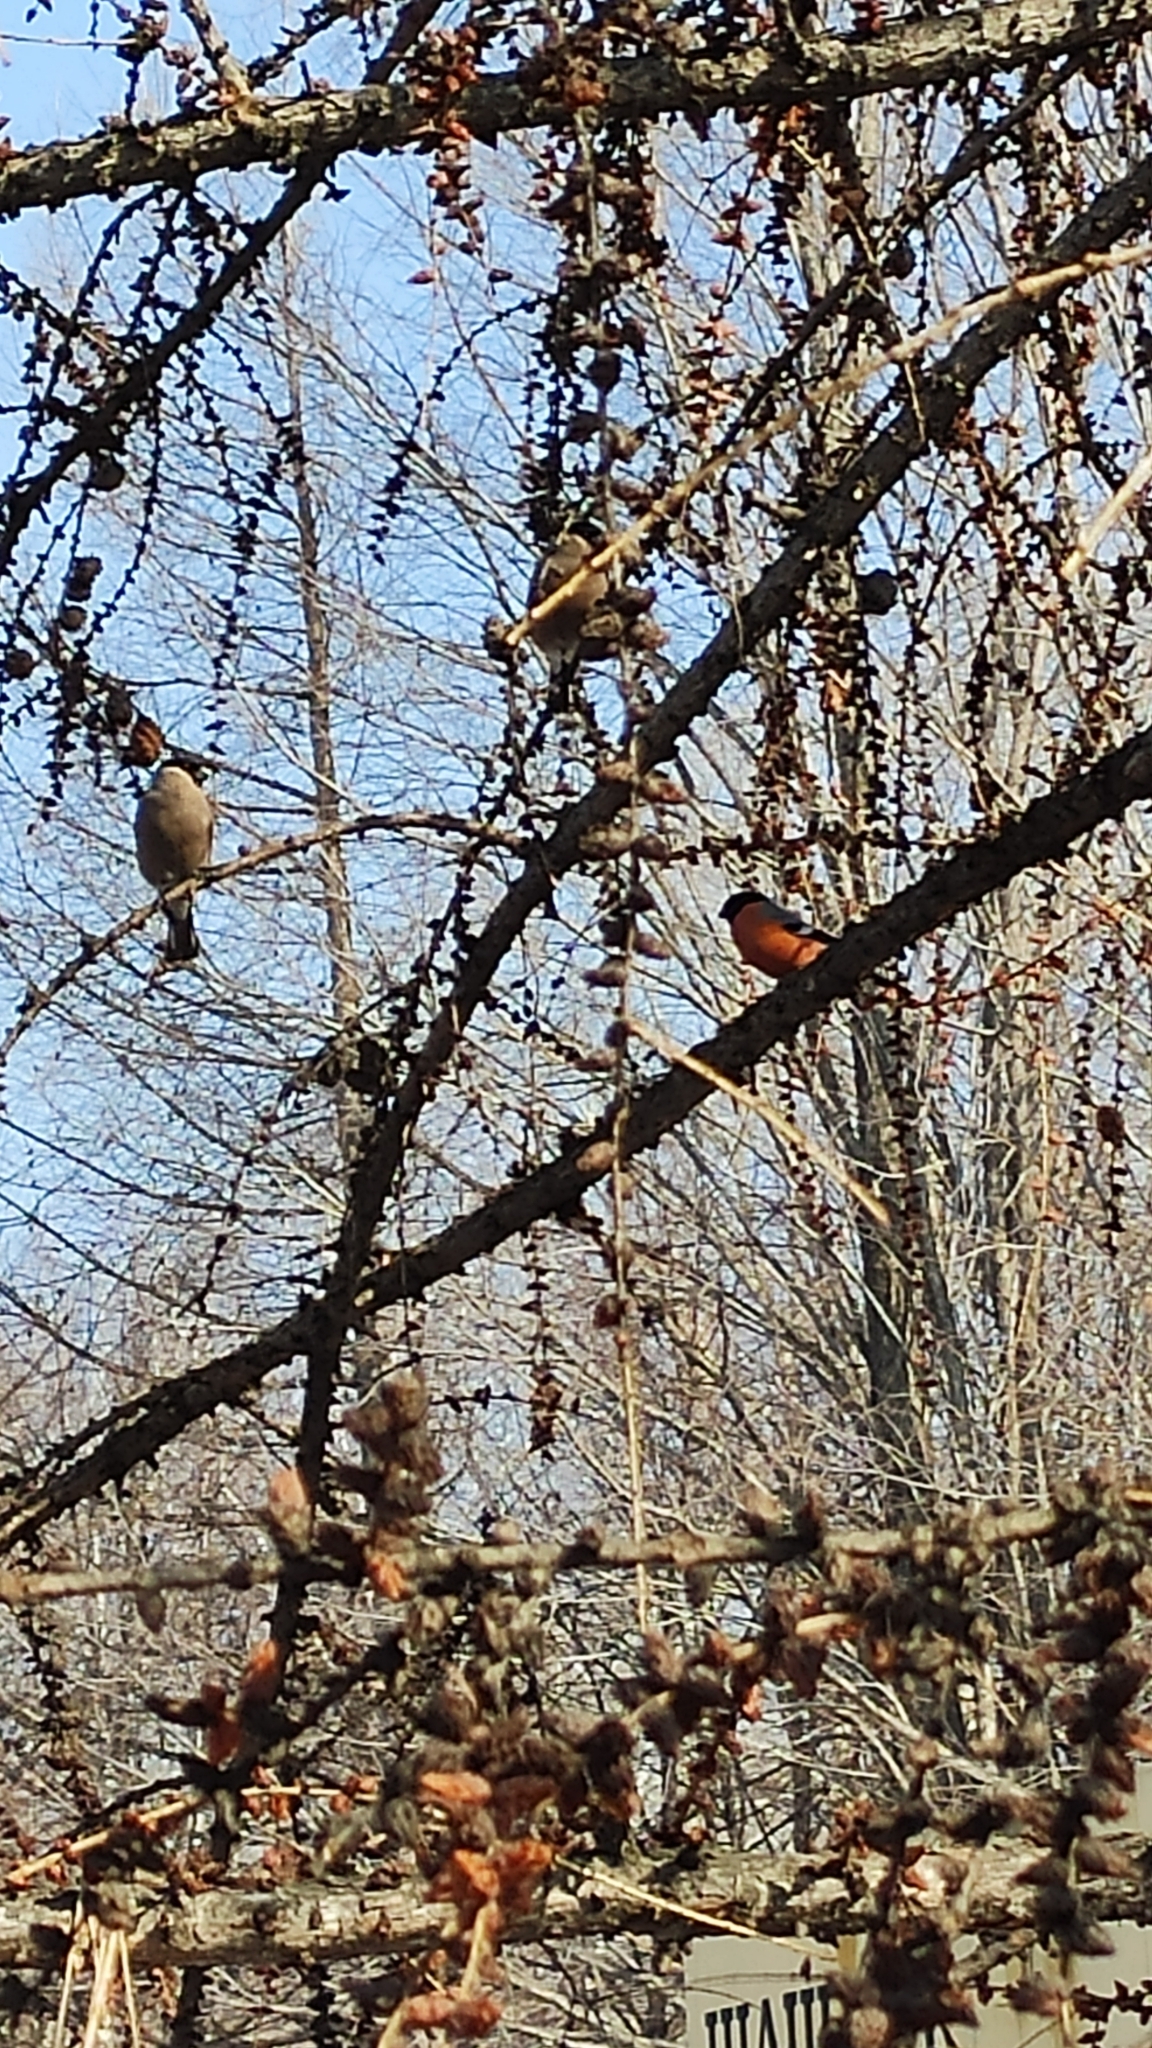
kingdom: Animalia
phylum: Chordata
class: Aves
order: Passeriformes
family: Fringillidae
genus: Pyrrhula
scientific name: Pyrrhula pyrrhula
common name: Eurasian bullfinch
